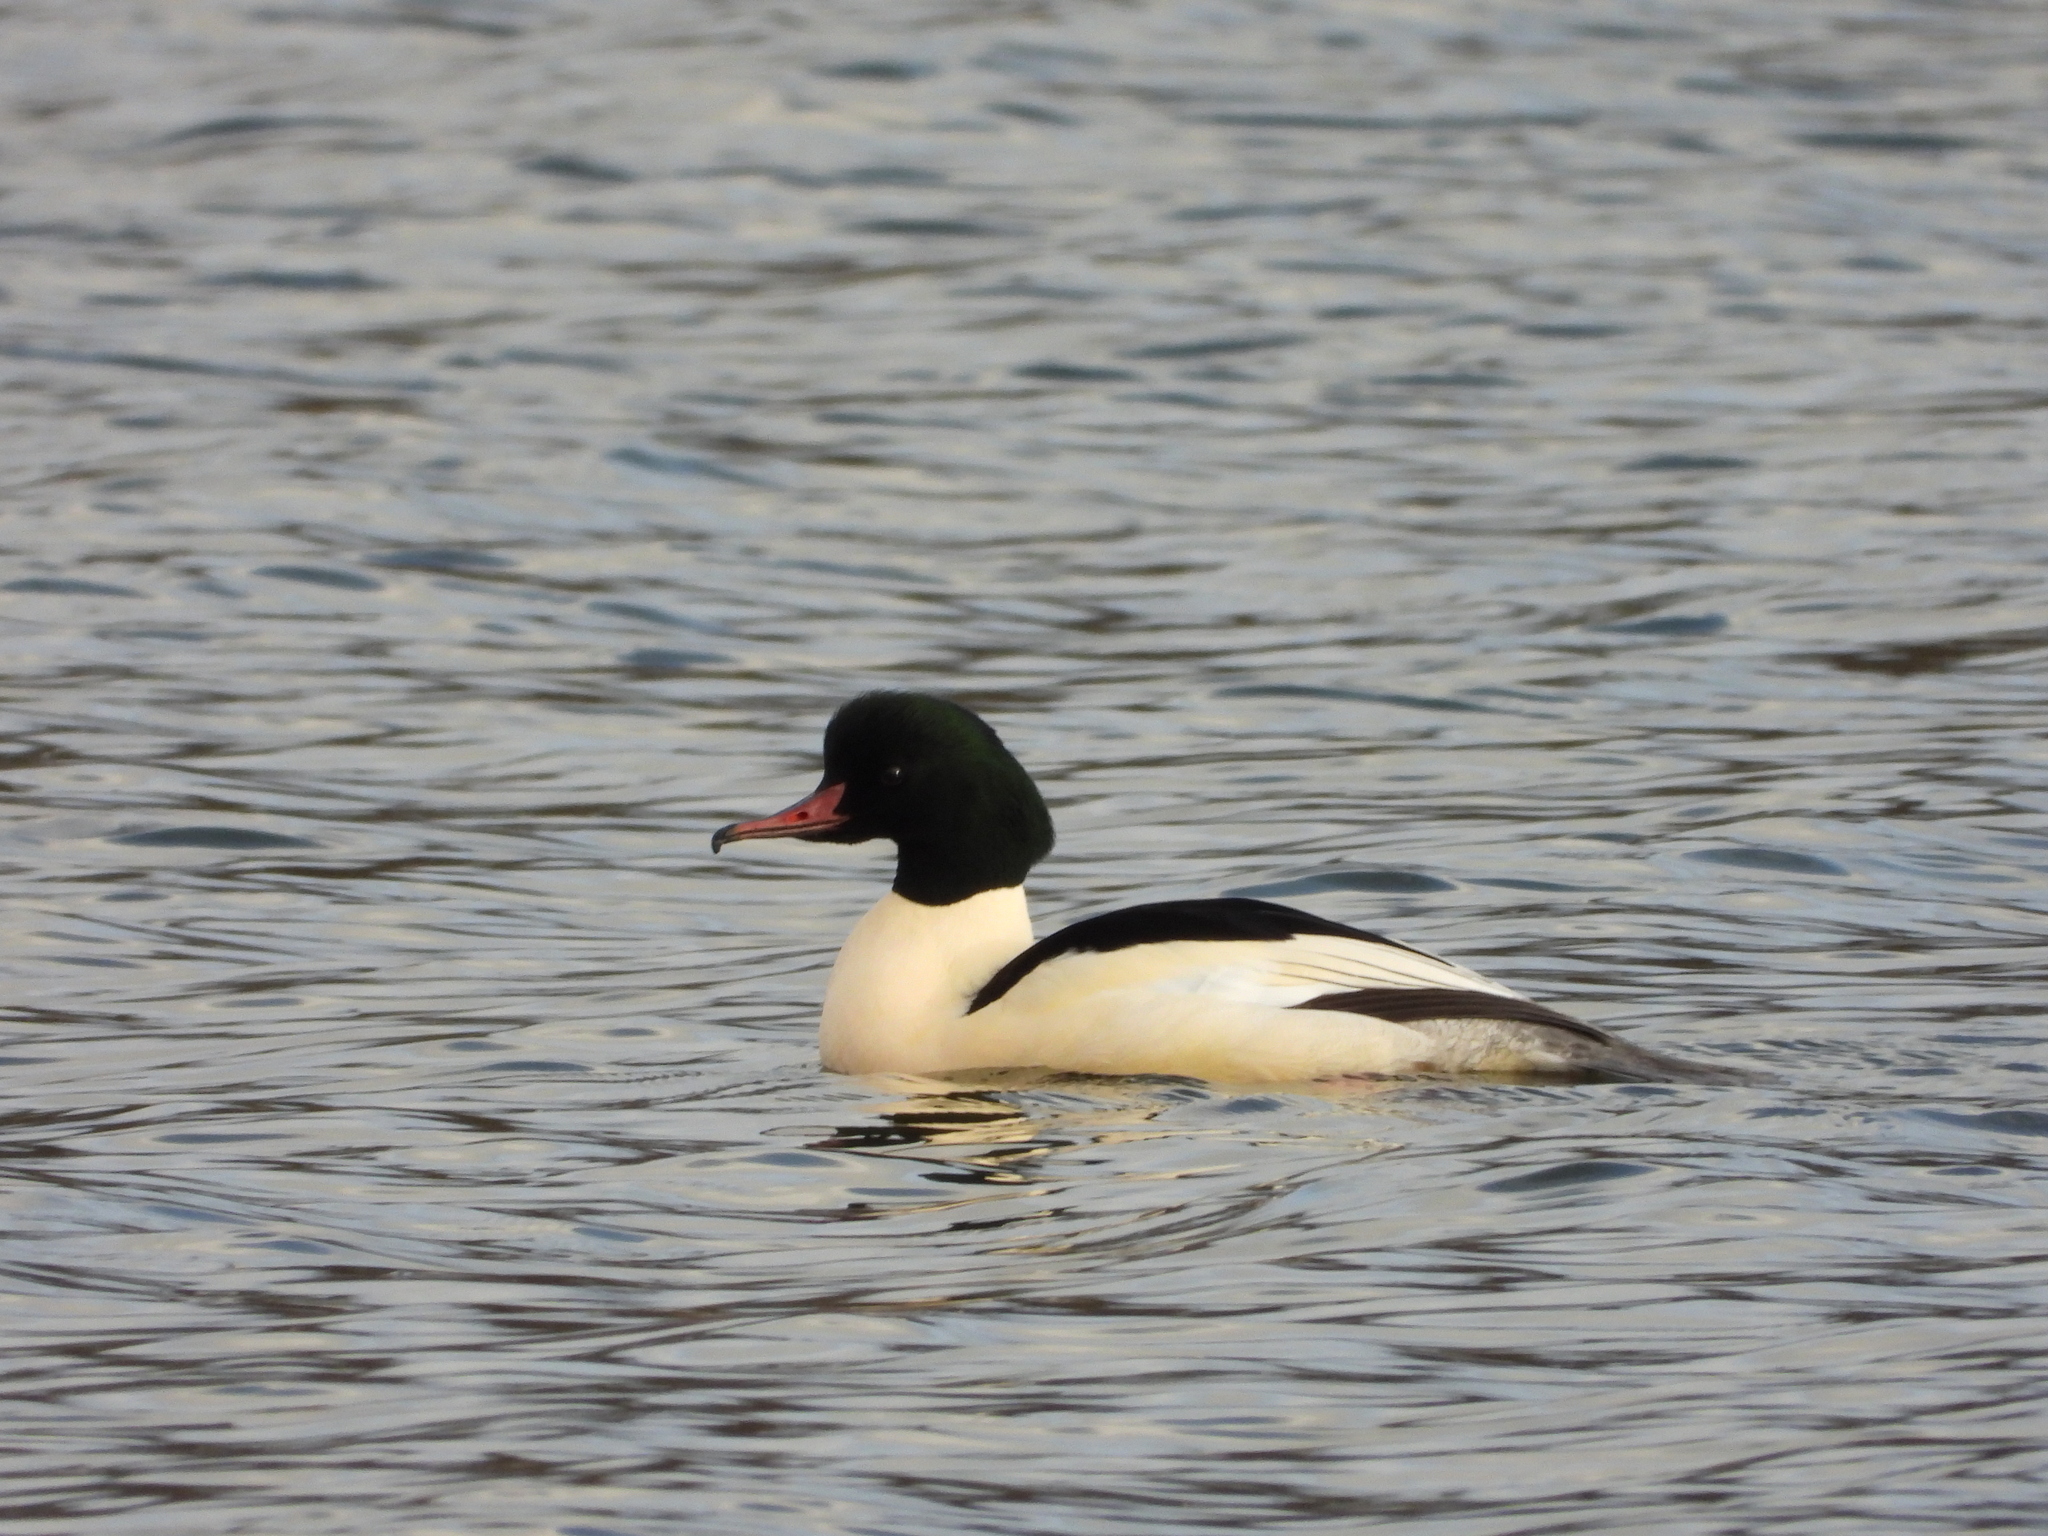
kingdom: Animalia
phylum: Chordata
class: Aves
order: Anseriformes
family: Anatidae
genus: Mergus
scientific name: Mergus merganser
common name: Common merganser
